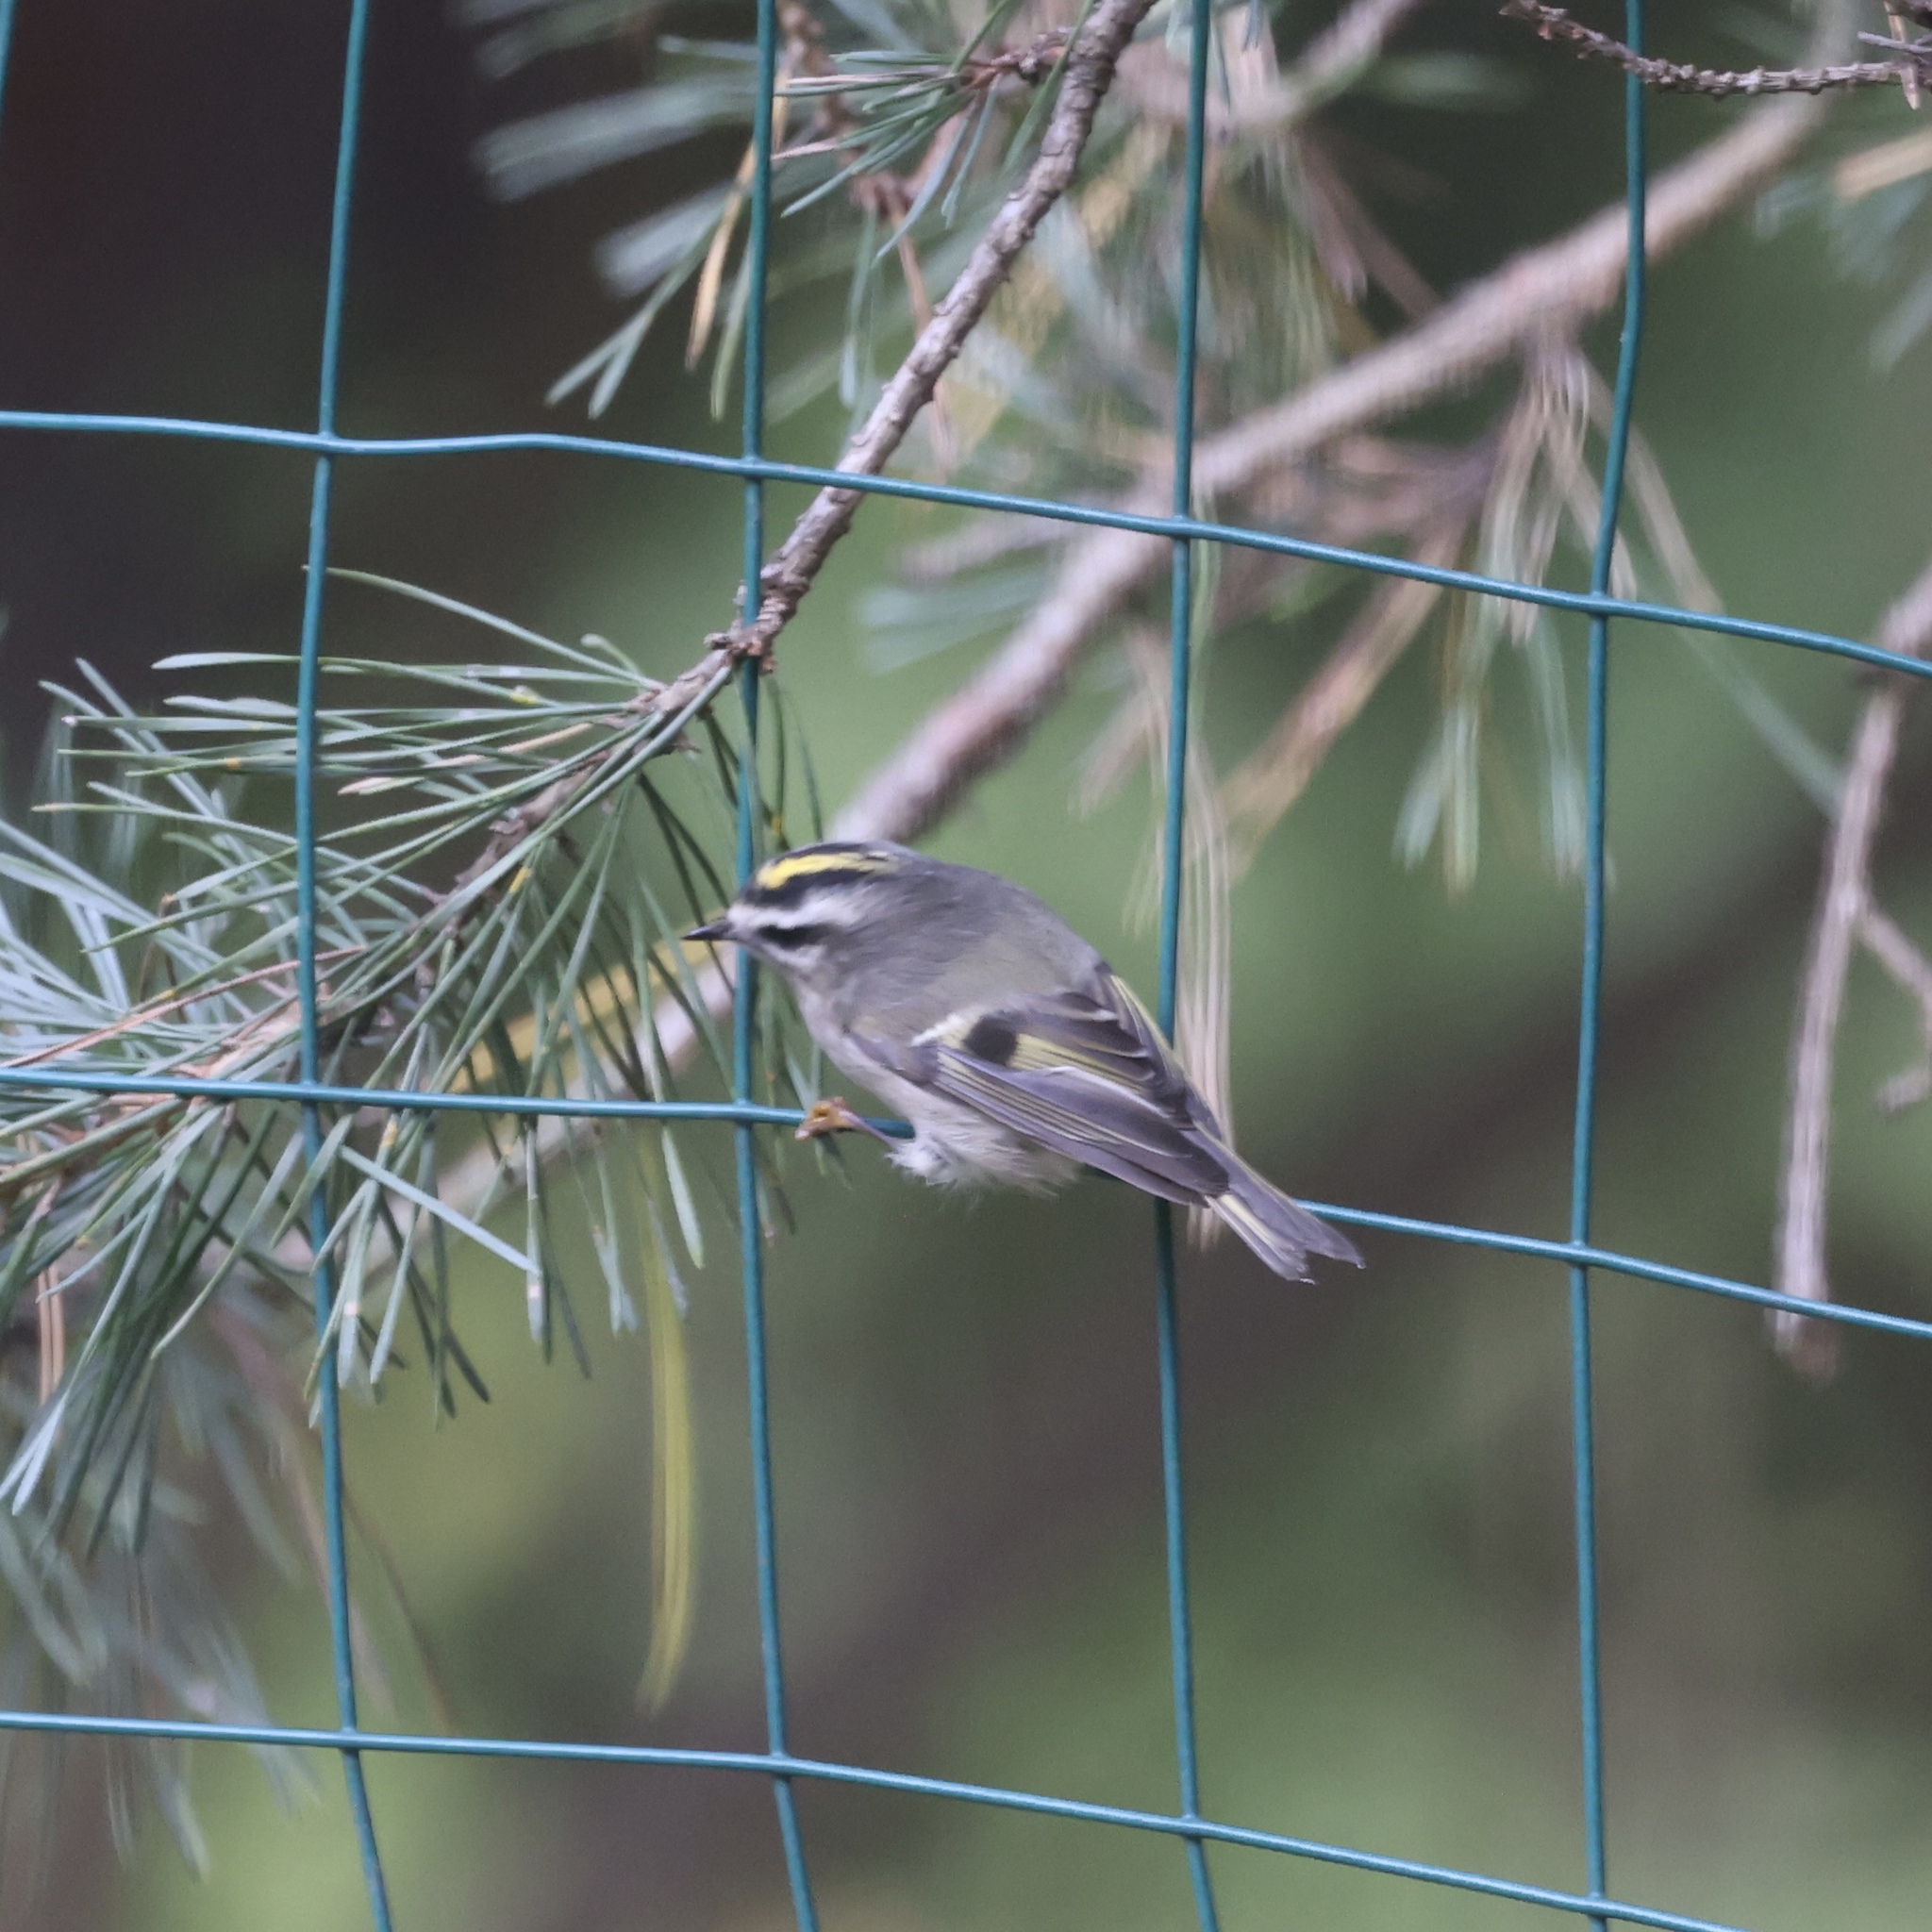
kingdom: Animalia
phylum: Chordata
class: Aves
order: Passeriformes
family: Regulidae
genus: Regulus
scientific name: Regulus satrapa
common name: Golden-crowned kinglet
